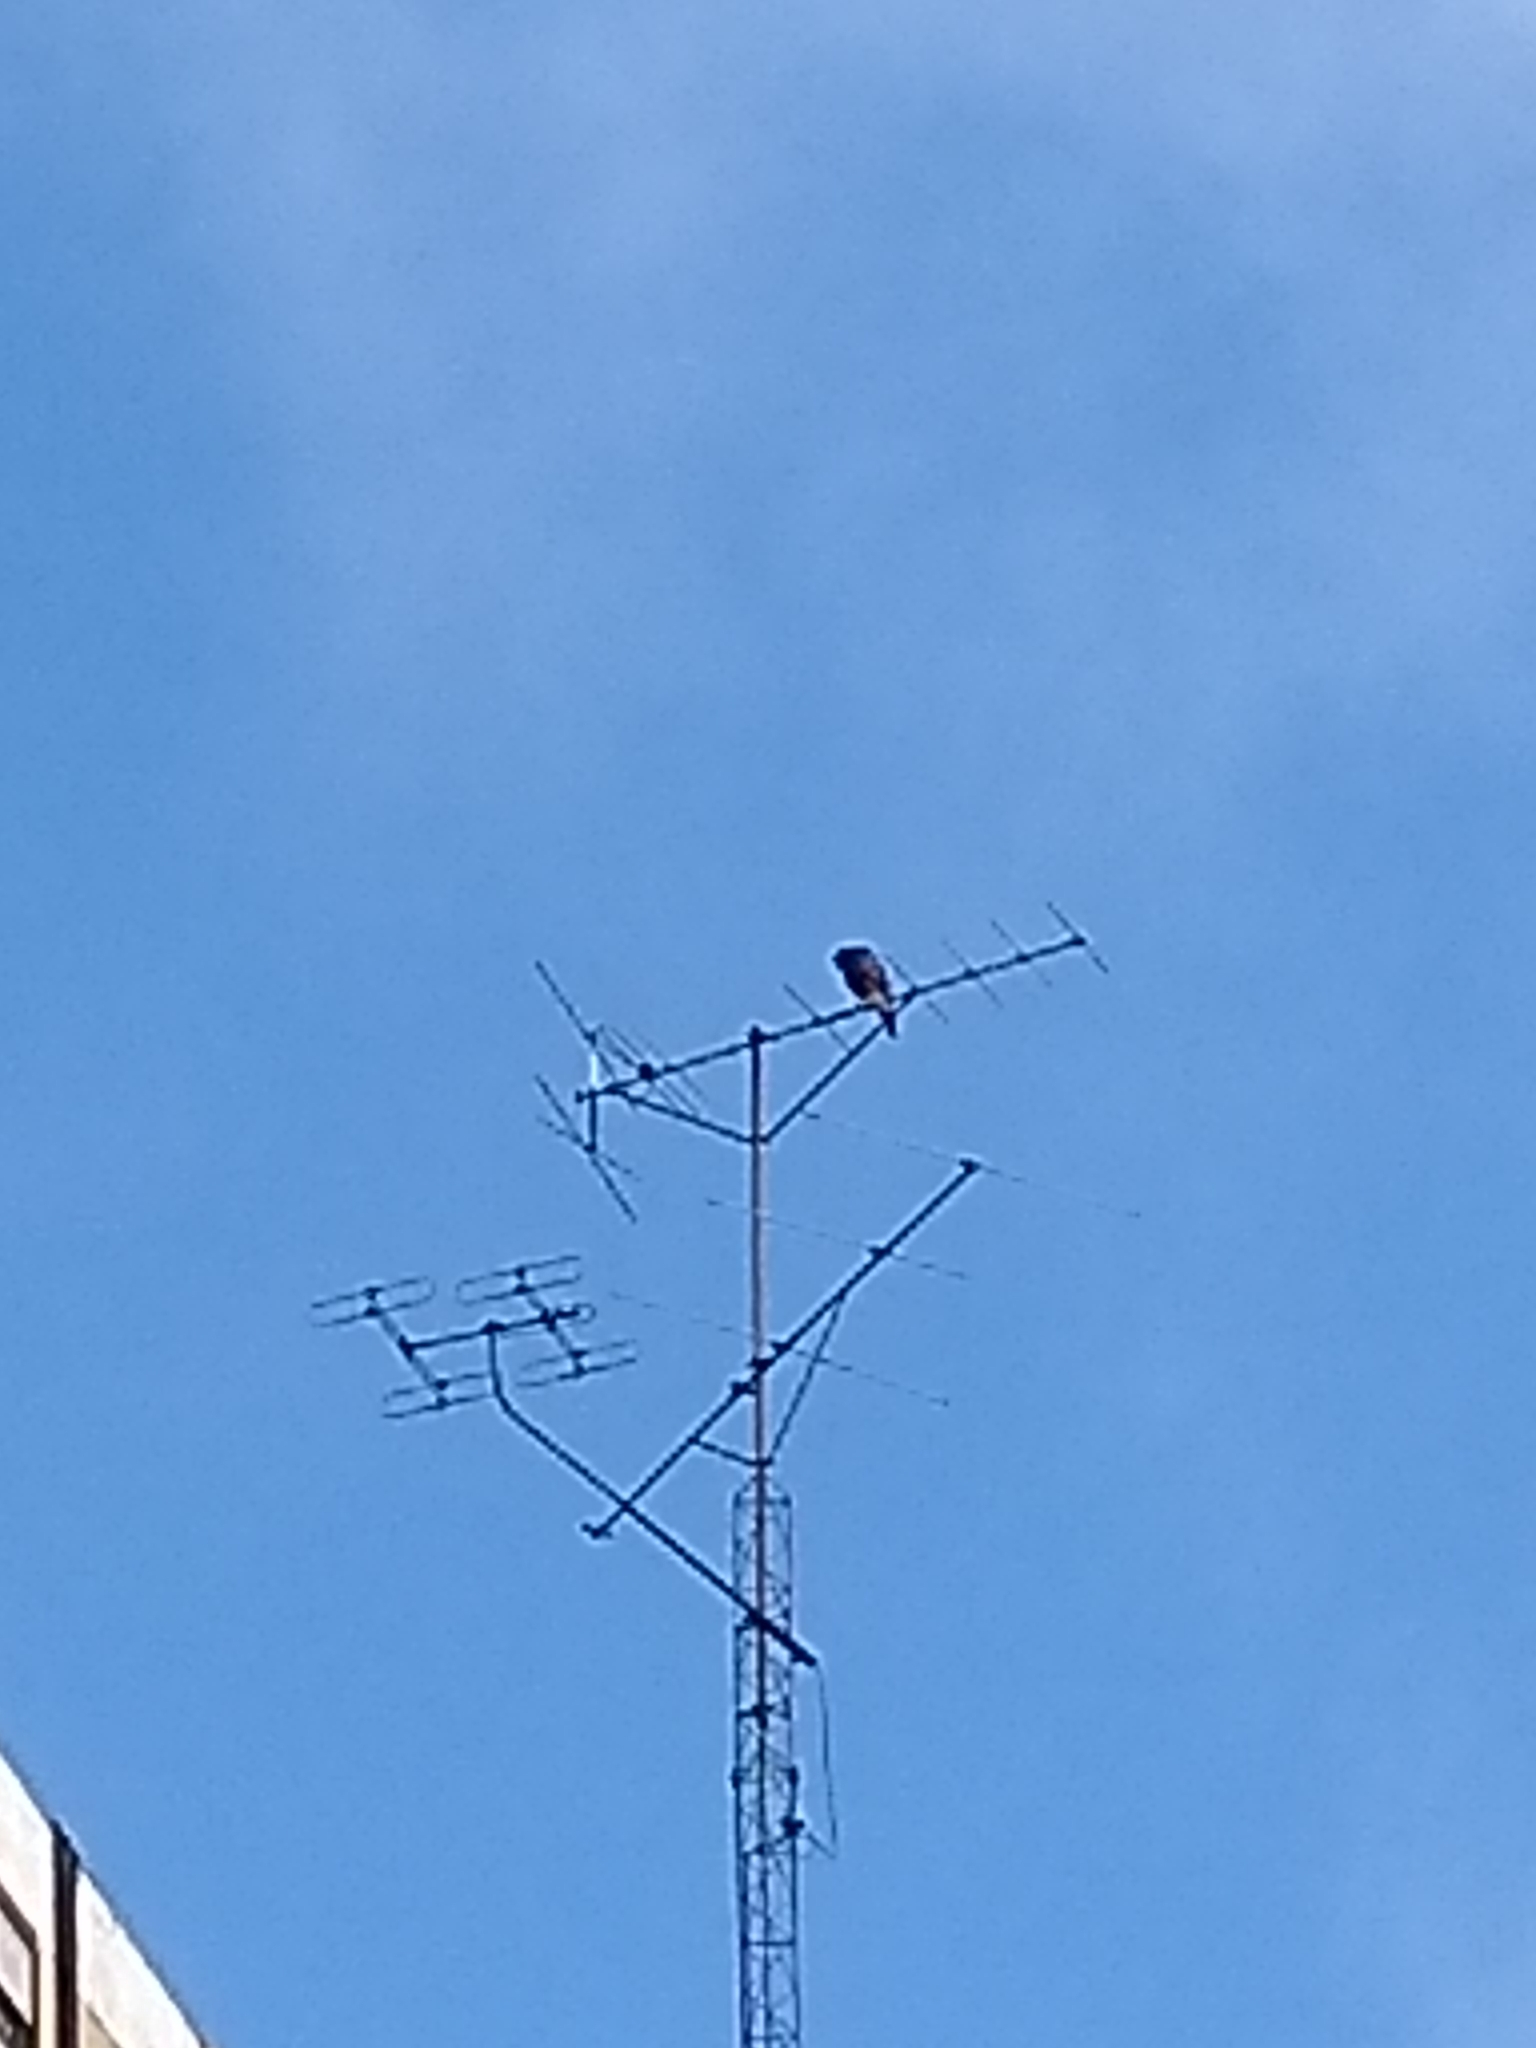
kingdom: Animalia
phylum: Chordata
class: Aves
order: Accipitriformes
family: Accipitridae
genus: Parabuteo
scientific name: Parabuteo unicinctus
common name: Harris's hawk
